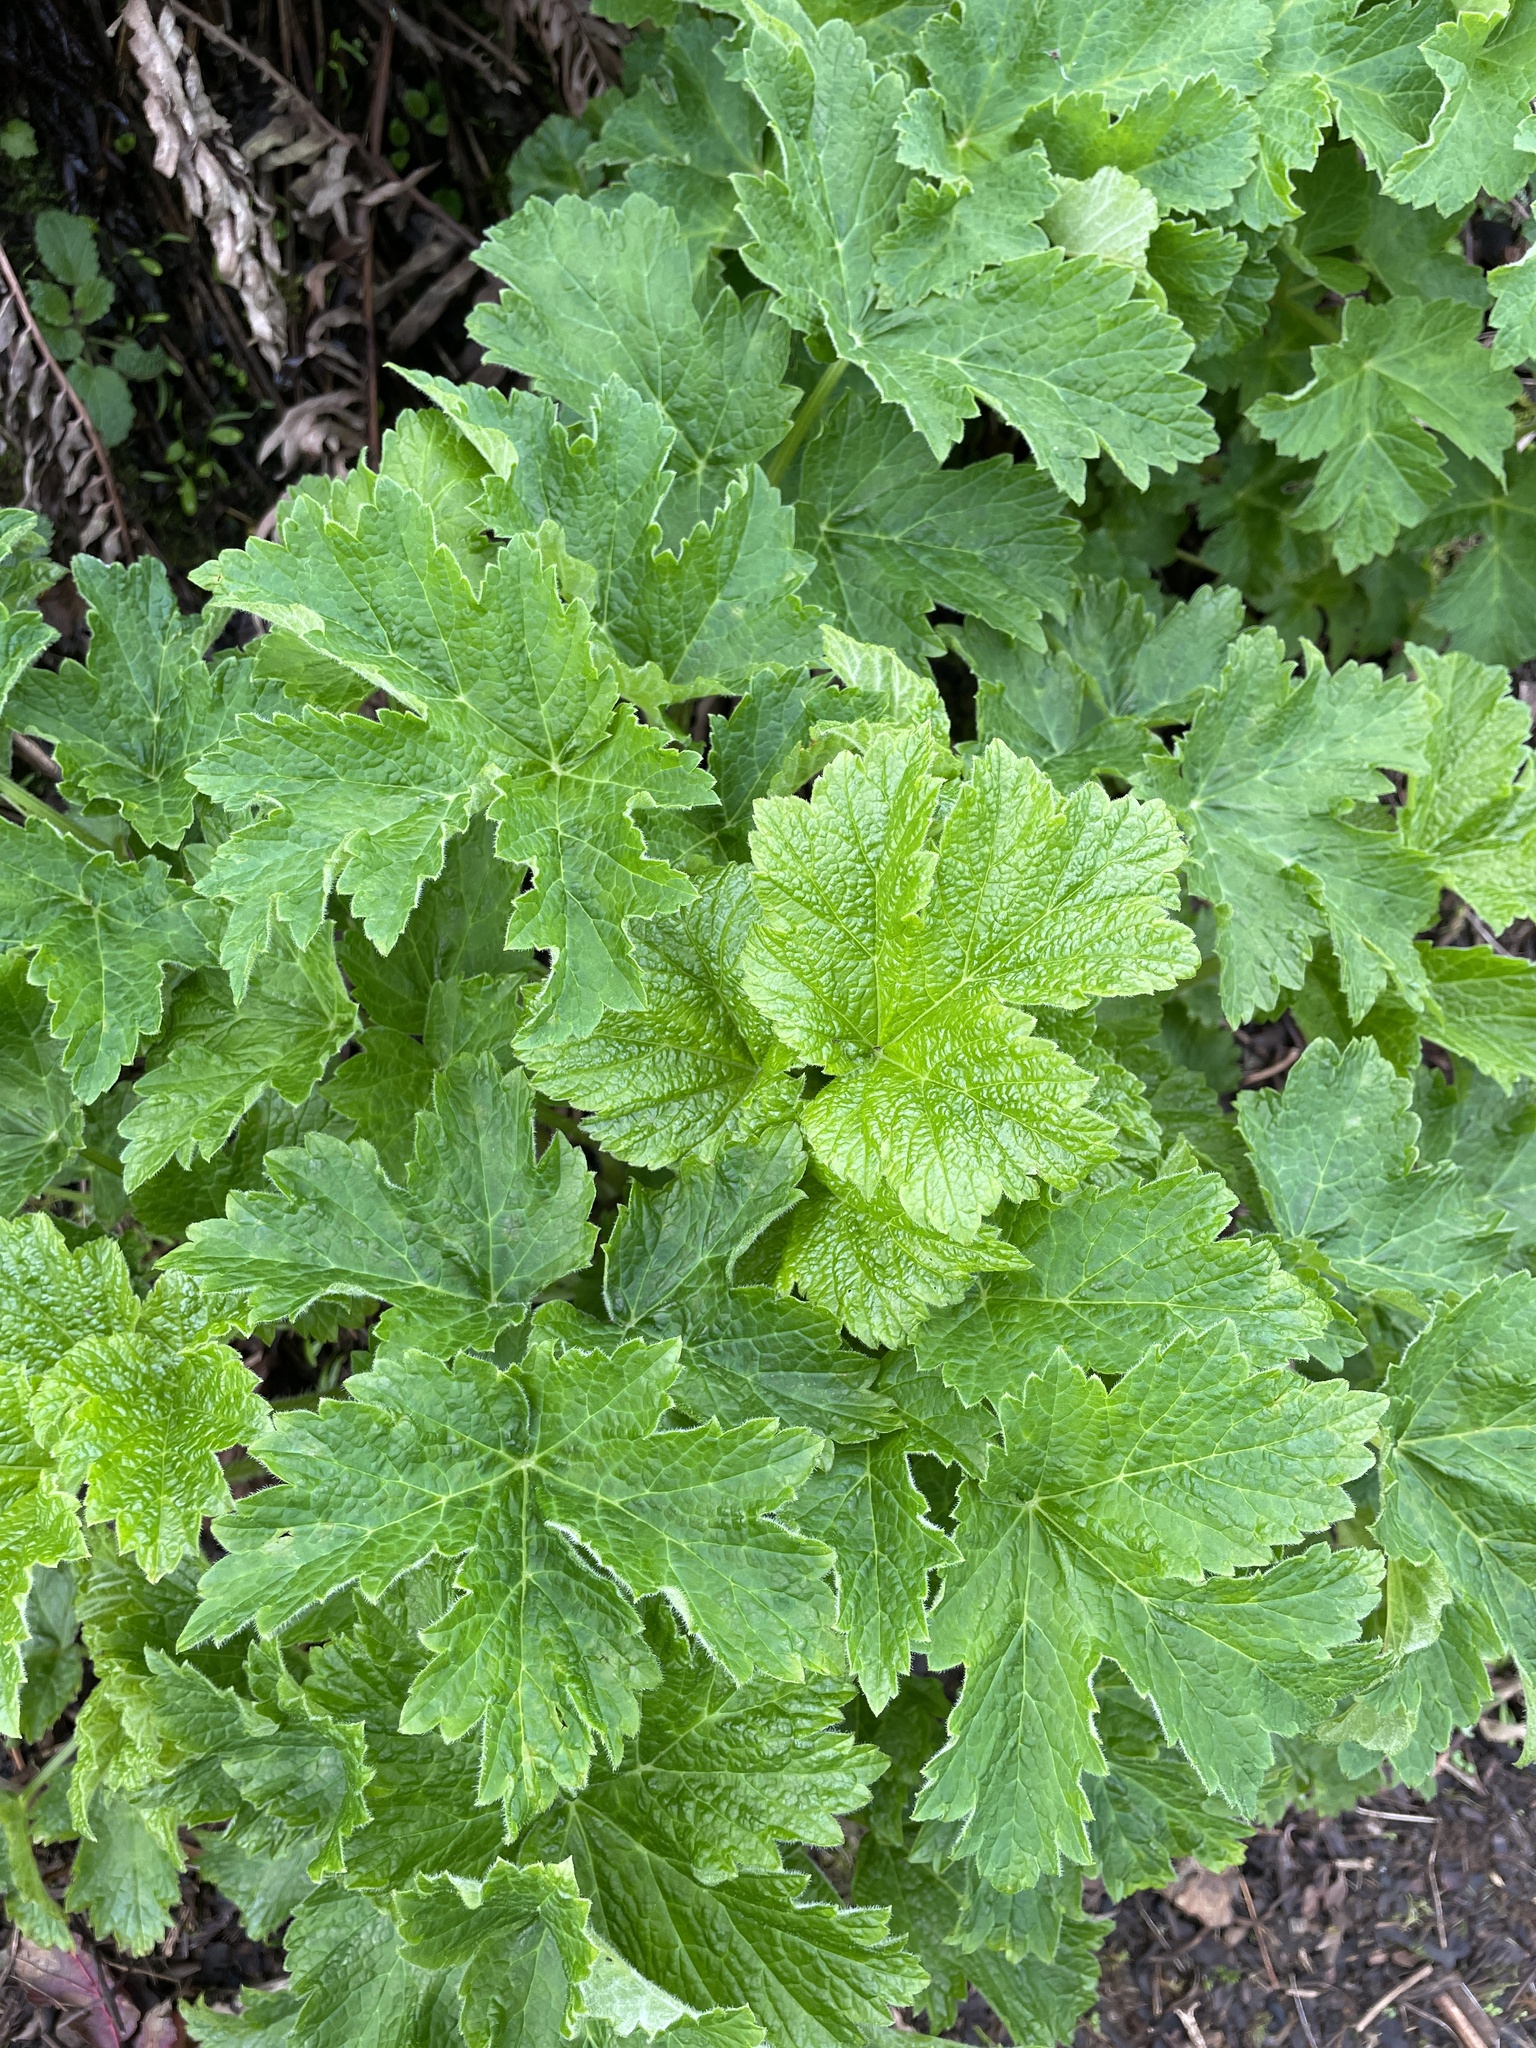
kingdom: Plantae
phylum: Tracheophyta
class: Magnoliopsida
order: Apiales
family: Apiaceae
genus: Heracleum
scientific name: Heracleum maximum
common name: American cow parsnip
